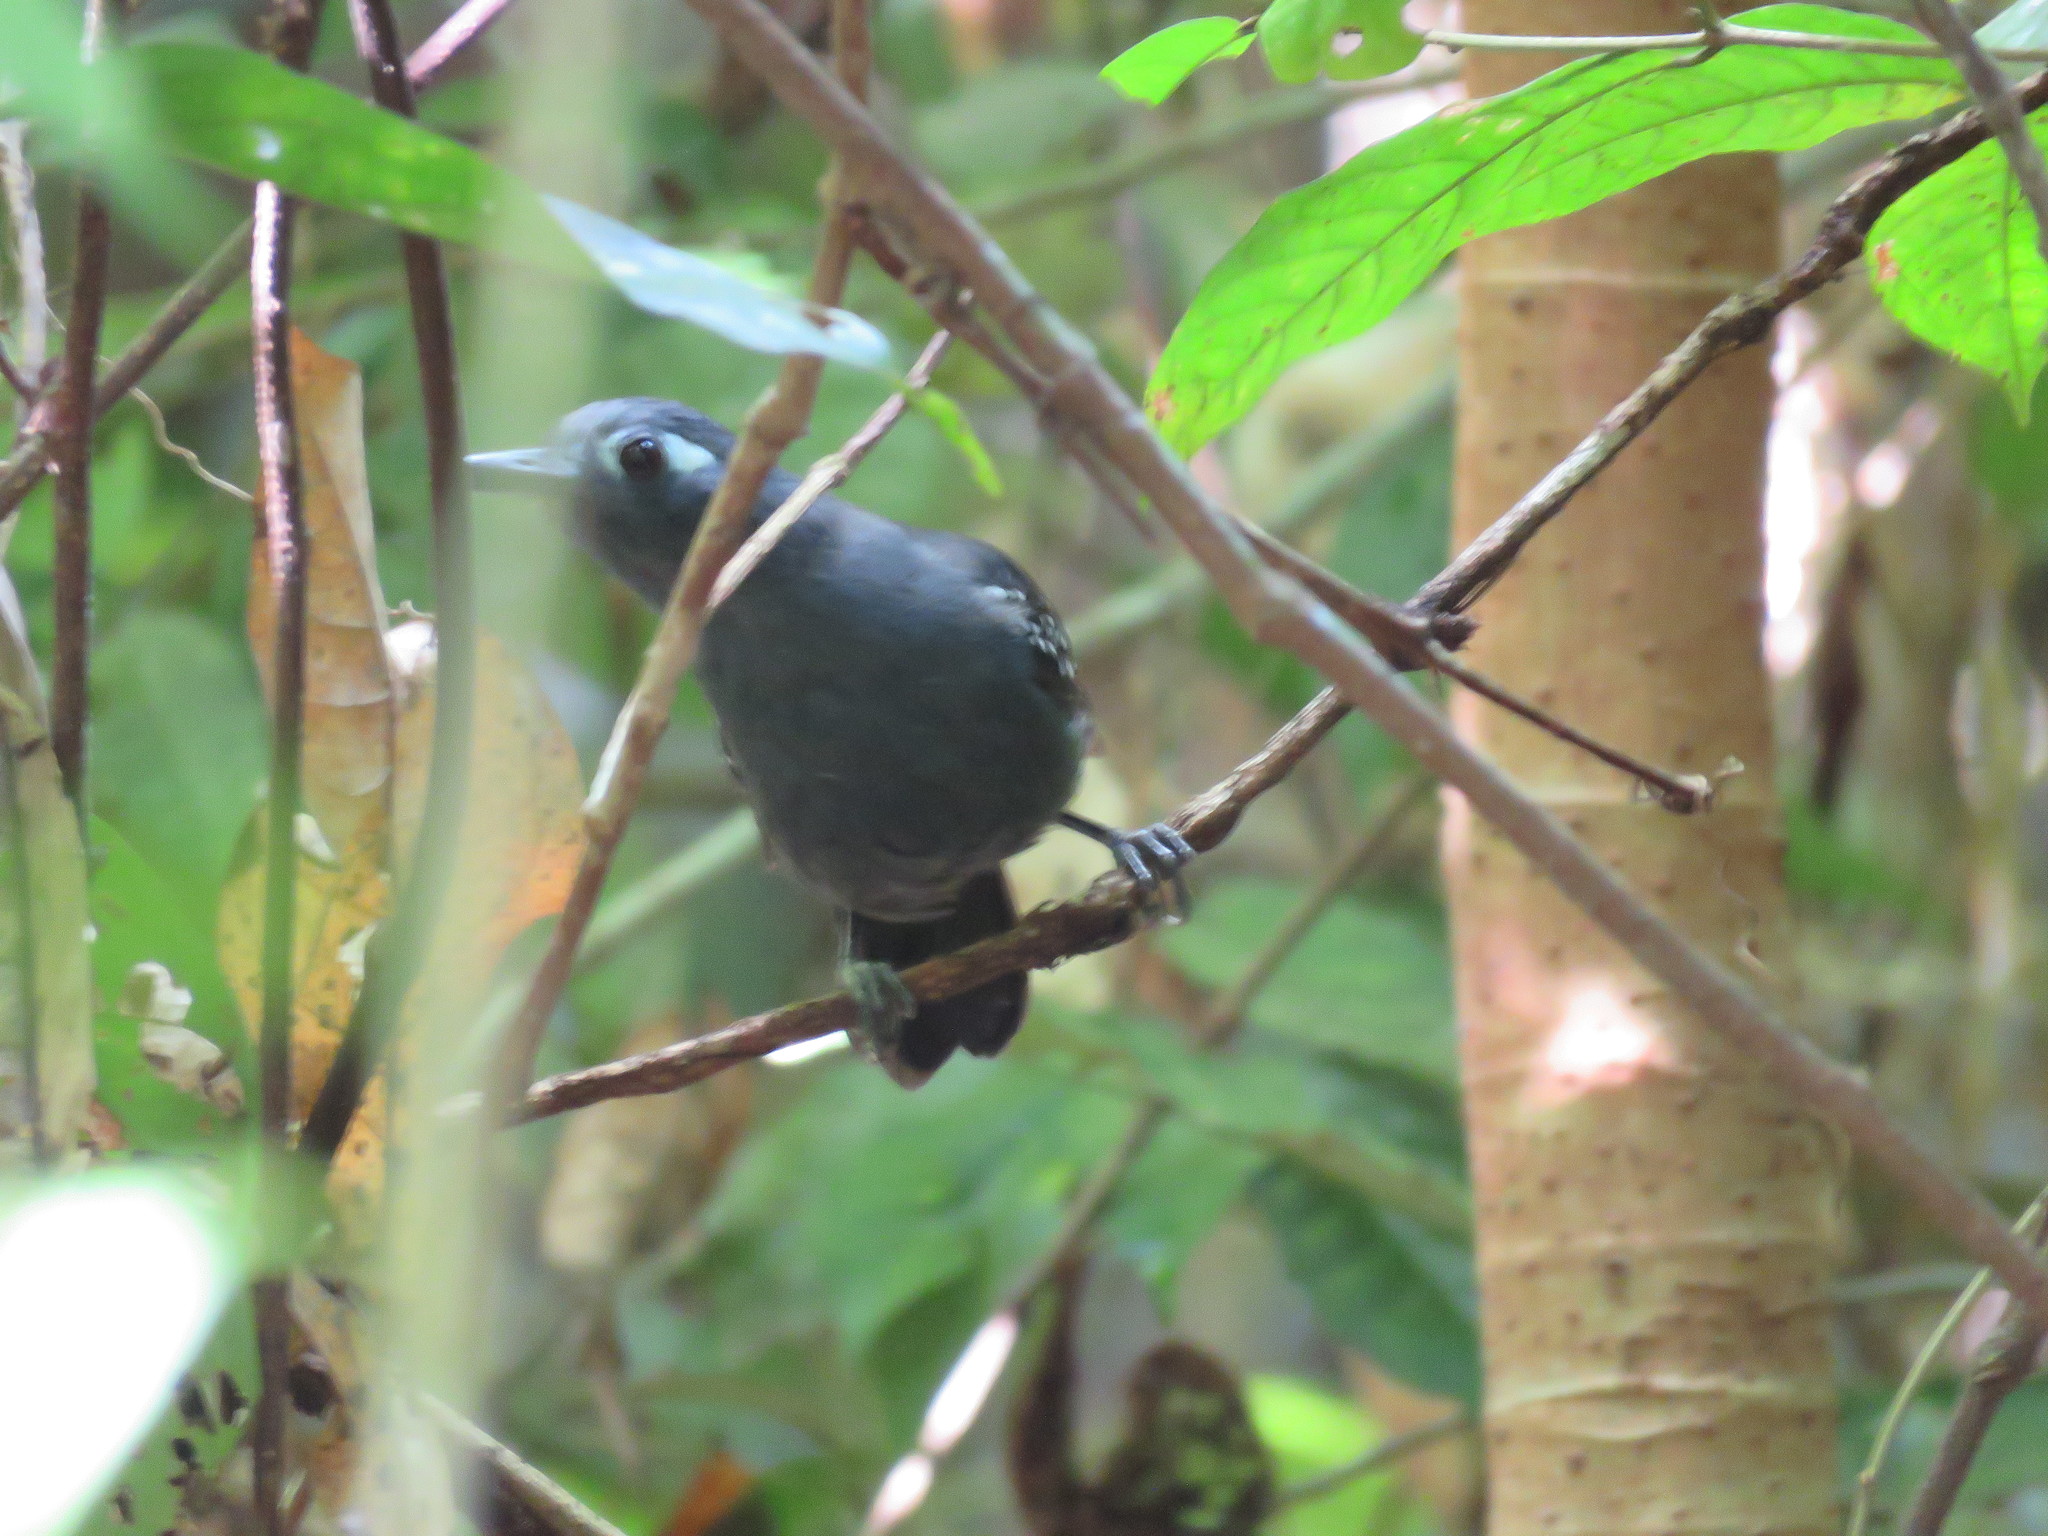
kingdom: Animalia
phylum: Chordata
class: Aves
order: Passeriformes
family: Thamnophilidae
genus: Myrmeciza
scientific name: Myrmeciza hyperythra
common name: Plumbeous antbird
